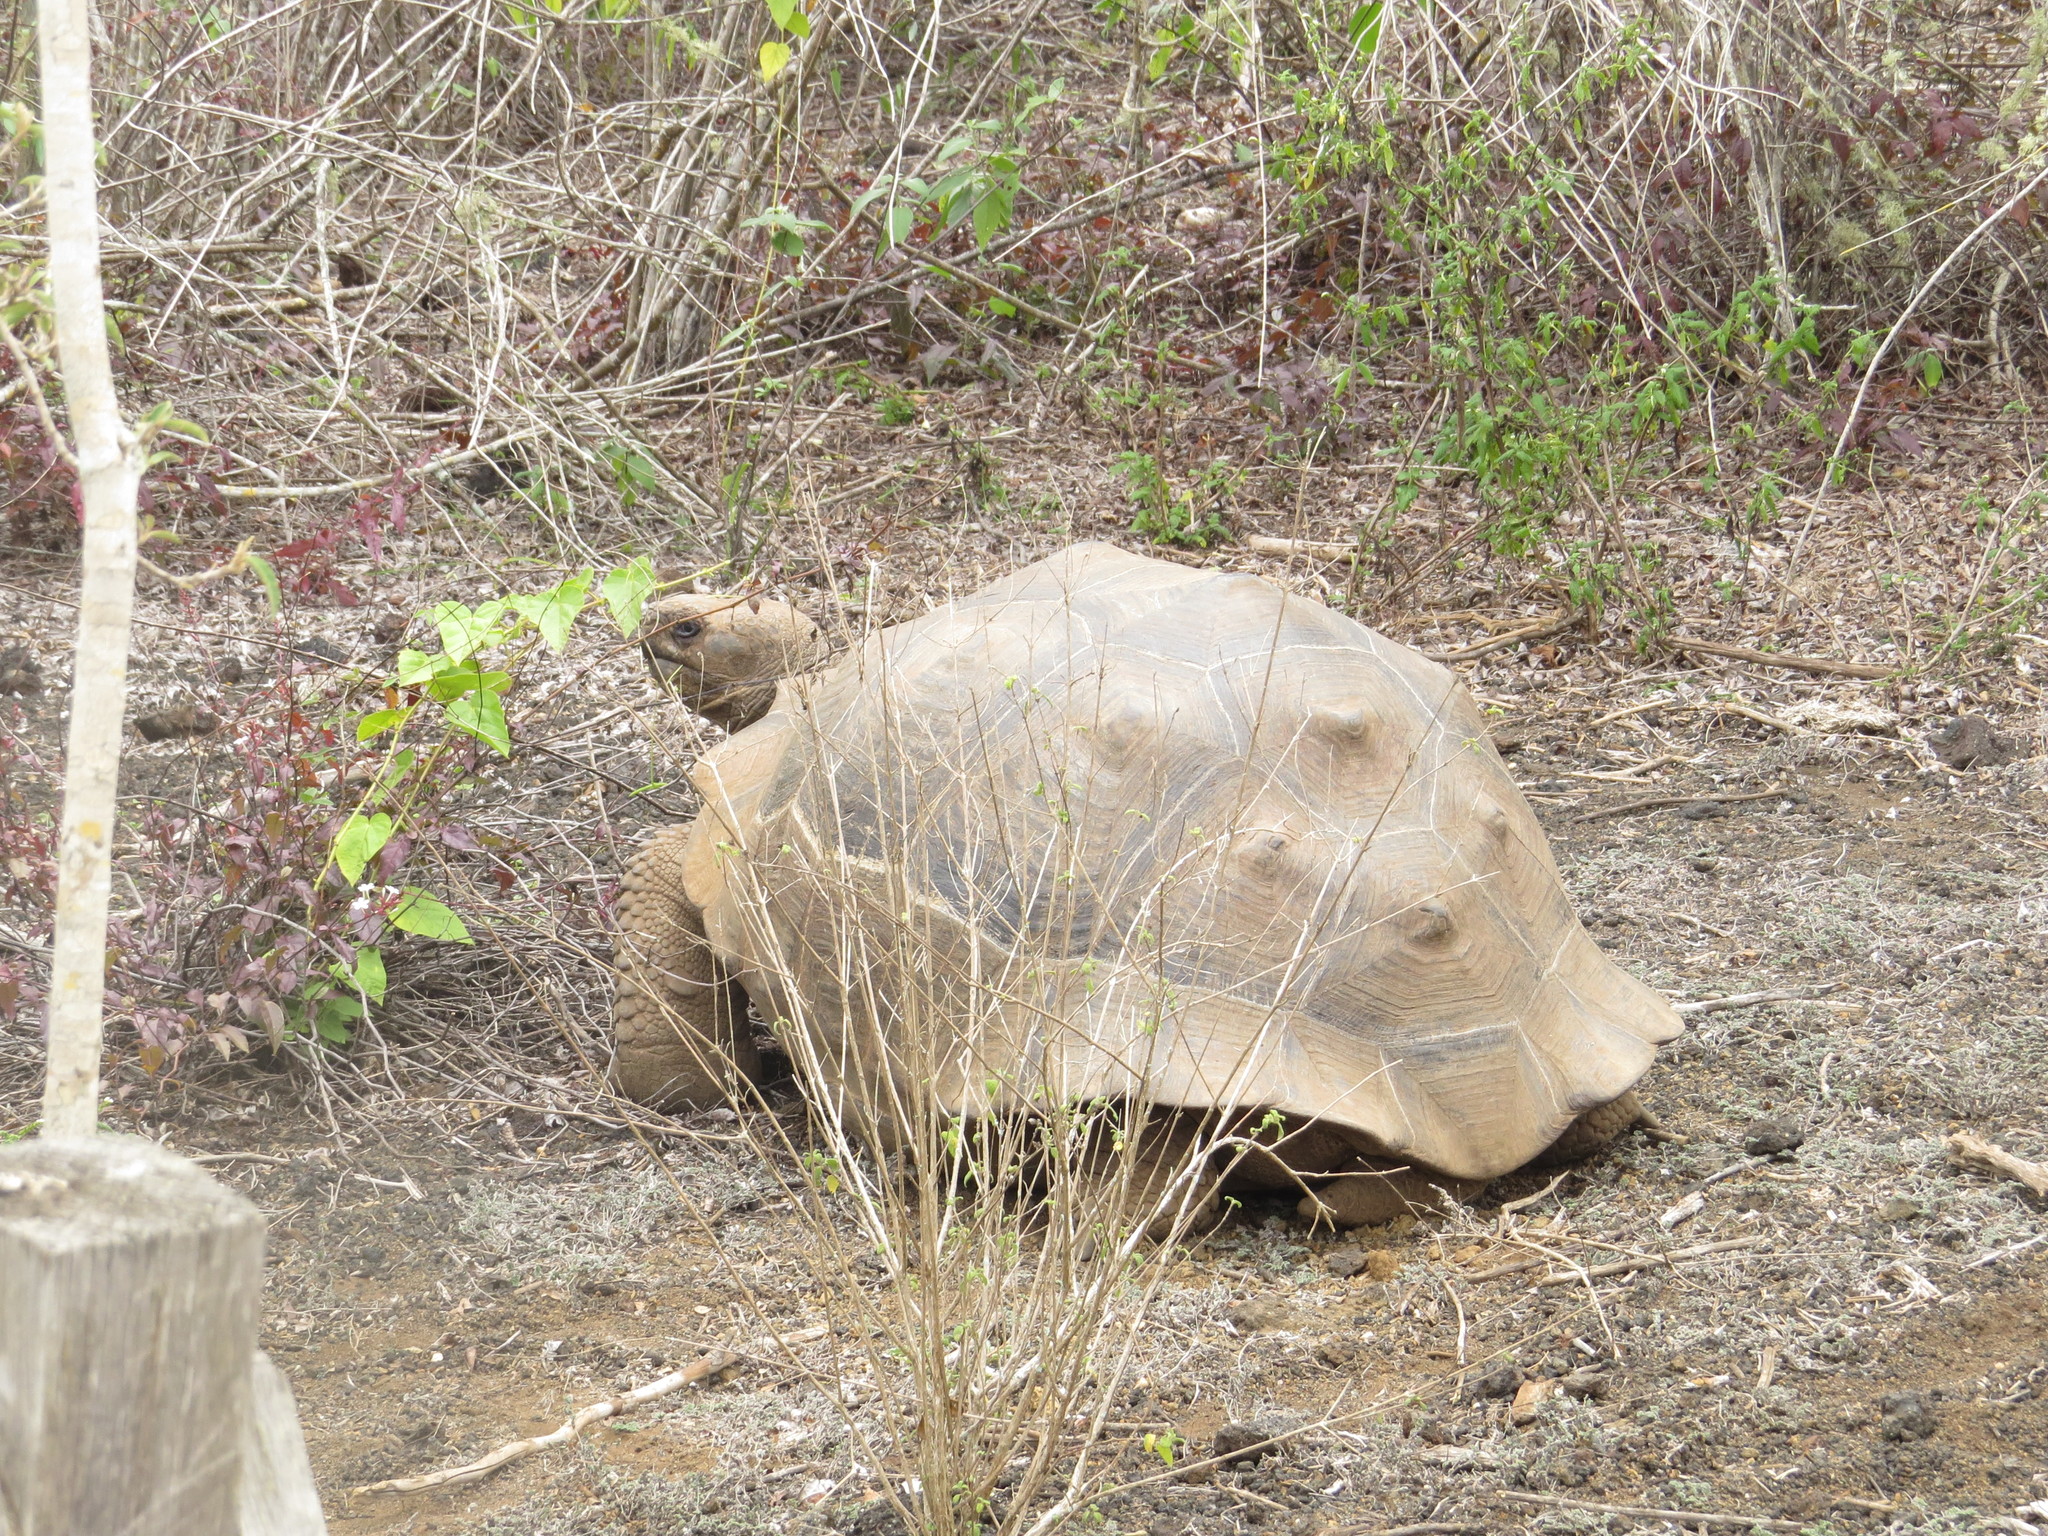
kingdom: Animalia
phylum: Chordata
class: Testudines
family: Testudinidae
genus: Chelonoidis
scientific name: Chelonoidis guntheri
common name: Sierra negra giant tortoise
